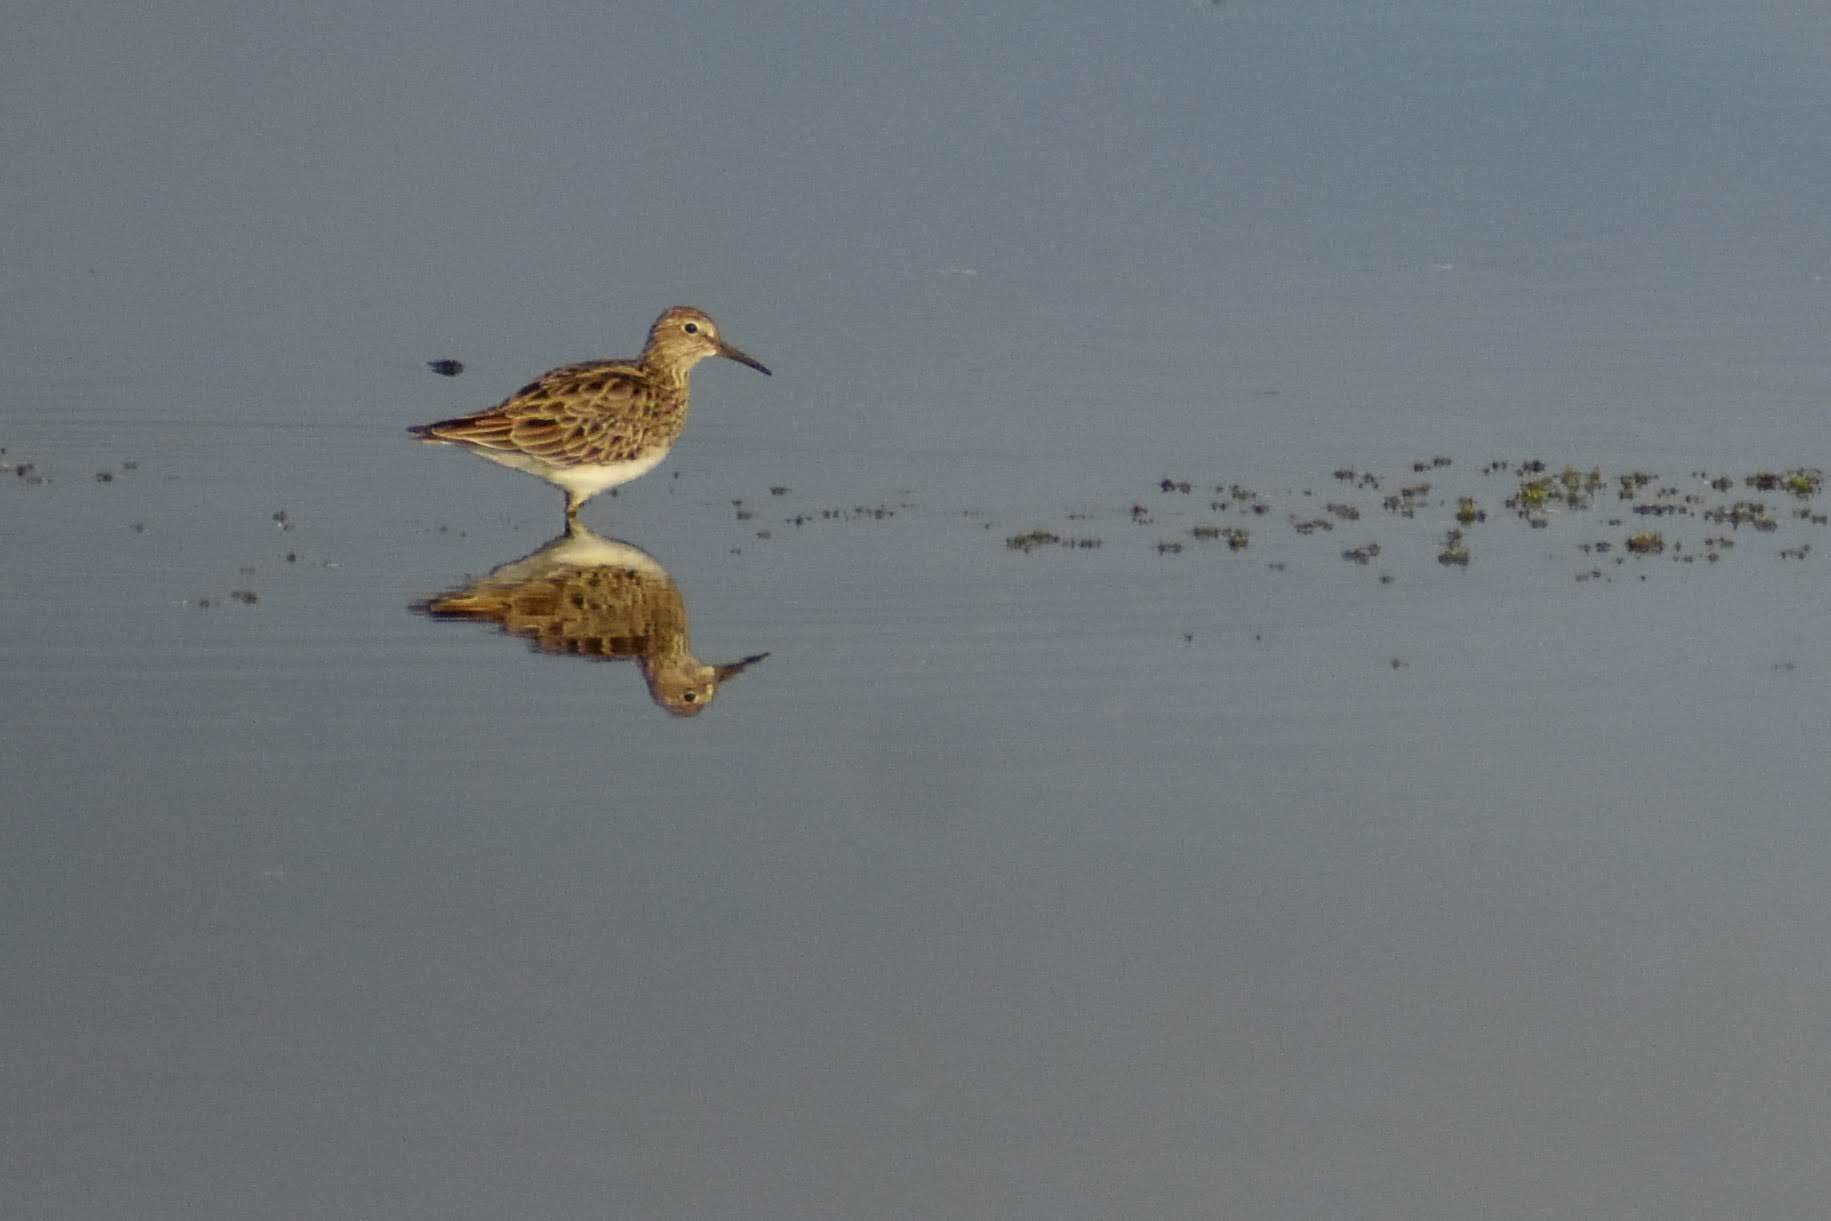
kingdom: Animalia
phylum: Chordata
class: Aves
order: Charadriiformes
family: Scolopacidae
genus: Calidris
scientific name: Calidris melanotos
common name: Pectoral sandpiper
